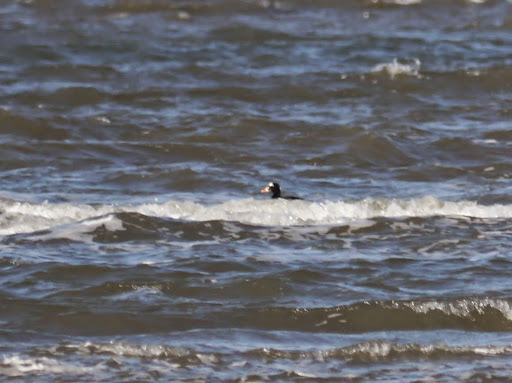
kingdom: Animalia
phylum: Chordata
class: Aves
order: Anseriformes
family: Anatidae
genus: Melanitta
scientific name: Melanitta perspicillata
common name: Surf scoter
